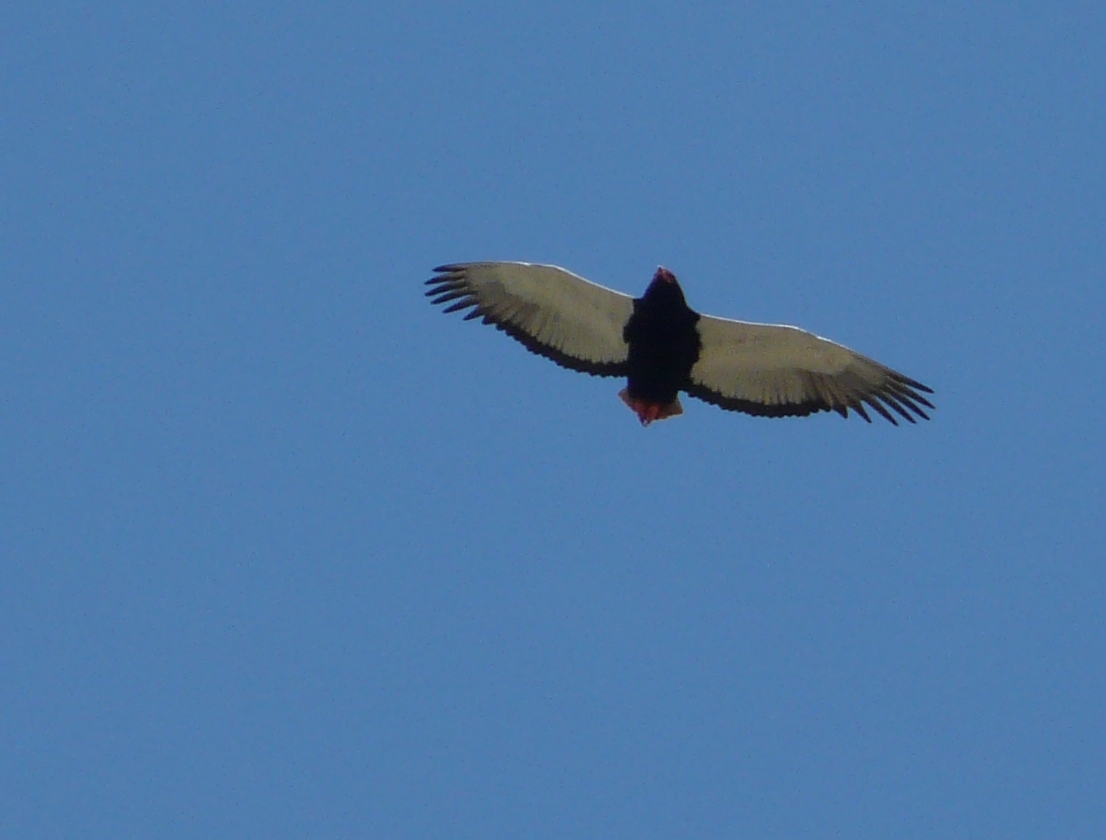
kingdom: Animalia
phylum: Chordata
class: Aves
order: Accipitriformes
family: Accipitridae
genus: Terathopius
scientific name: Terathopius ecaudatus
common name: Bateleur
